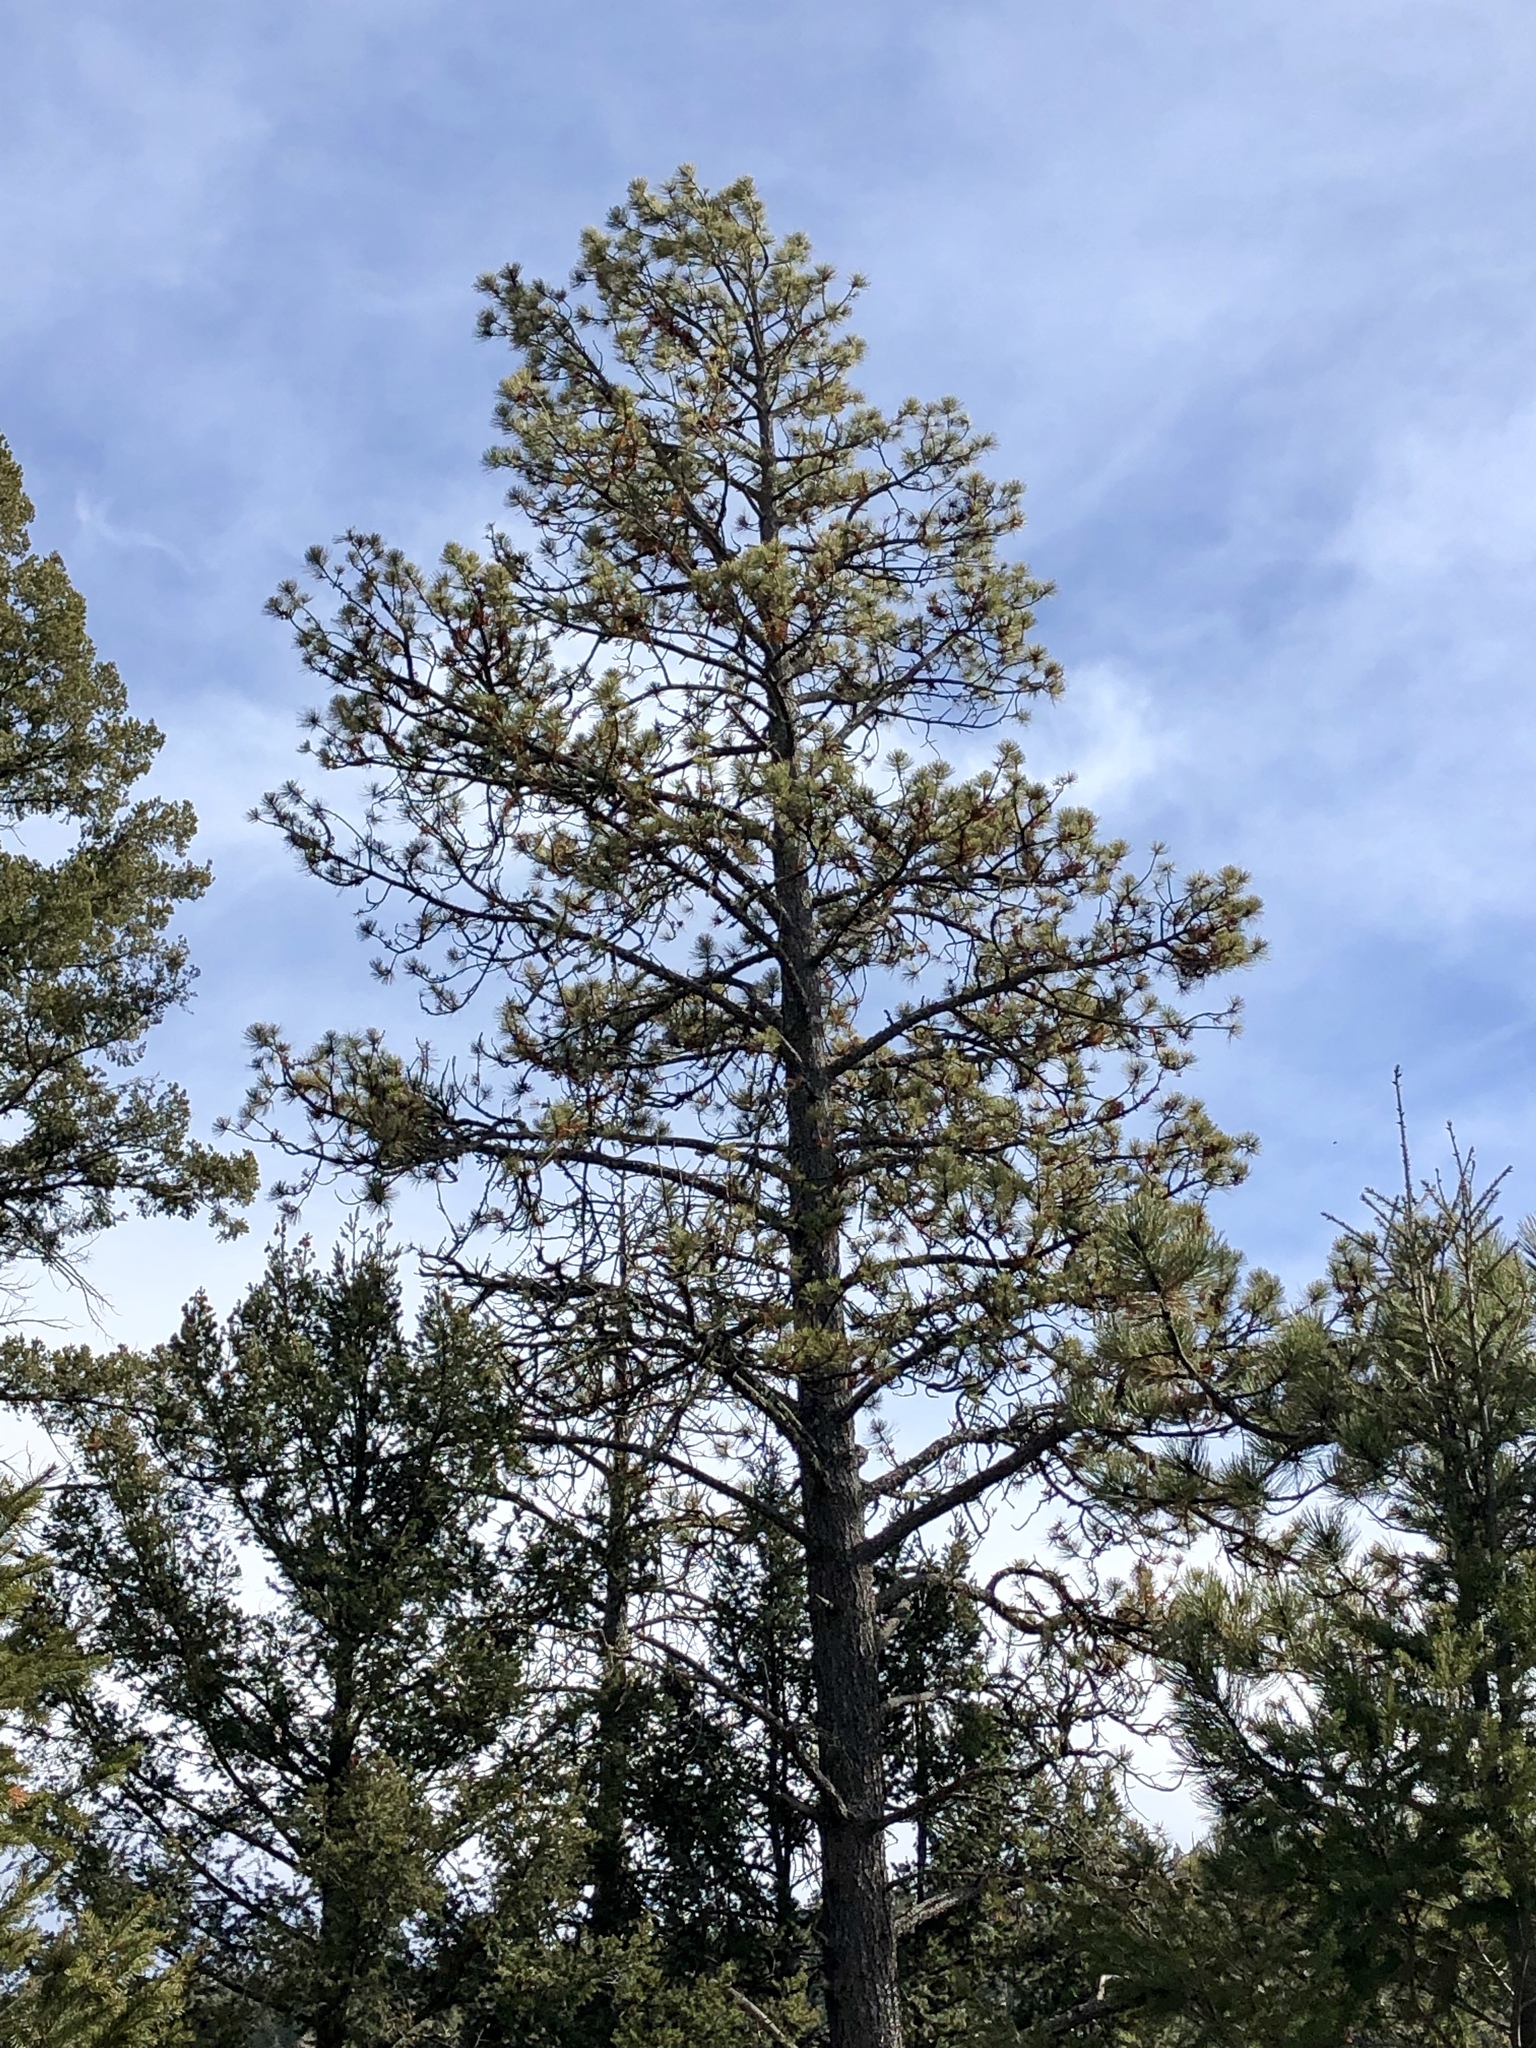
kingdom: Plantae
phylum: Tracheophyta
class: Pinopsida
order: Pinales
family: Pinaceae
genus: Pinus
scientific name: Pinus ponderosa
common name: Western yellow-pine
